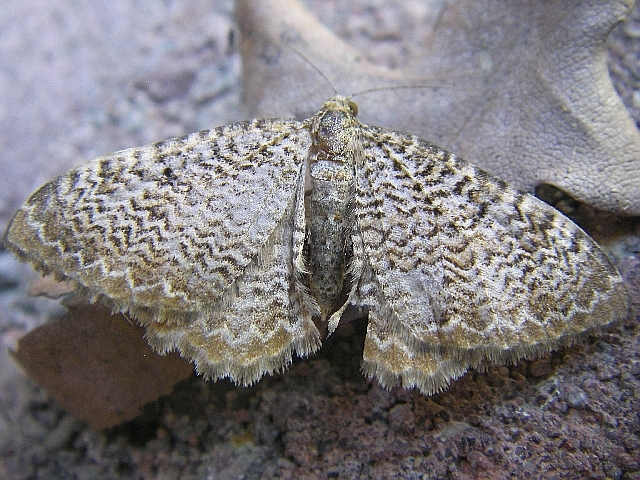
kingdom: Animalia
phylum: Arthropoda
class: Insecta
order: Lepidoptera
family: Geometridae
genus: Rheumaptera
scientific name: Rheumaptera undulata
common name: Scallop shell
